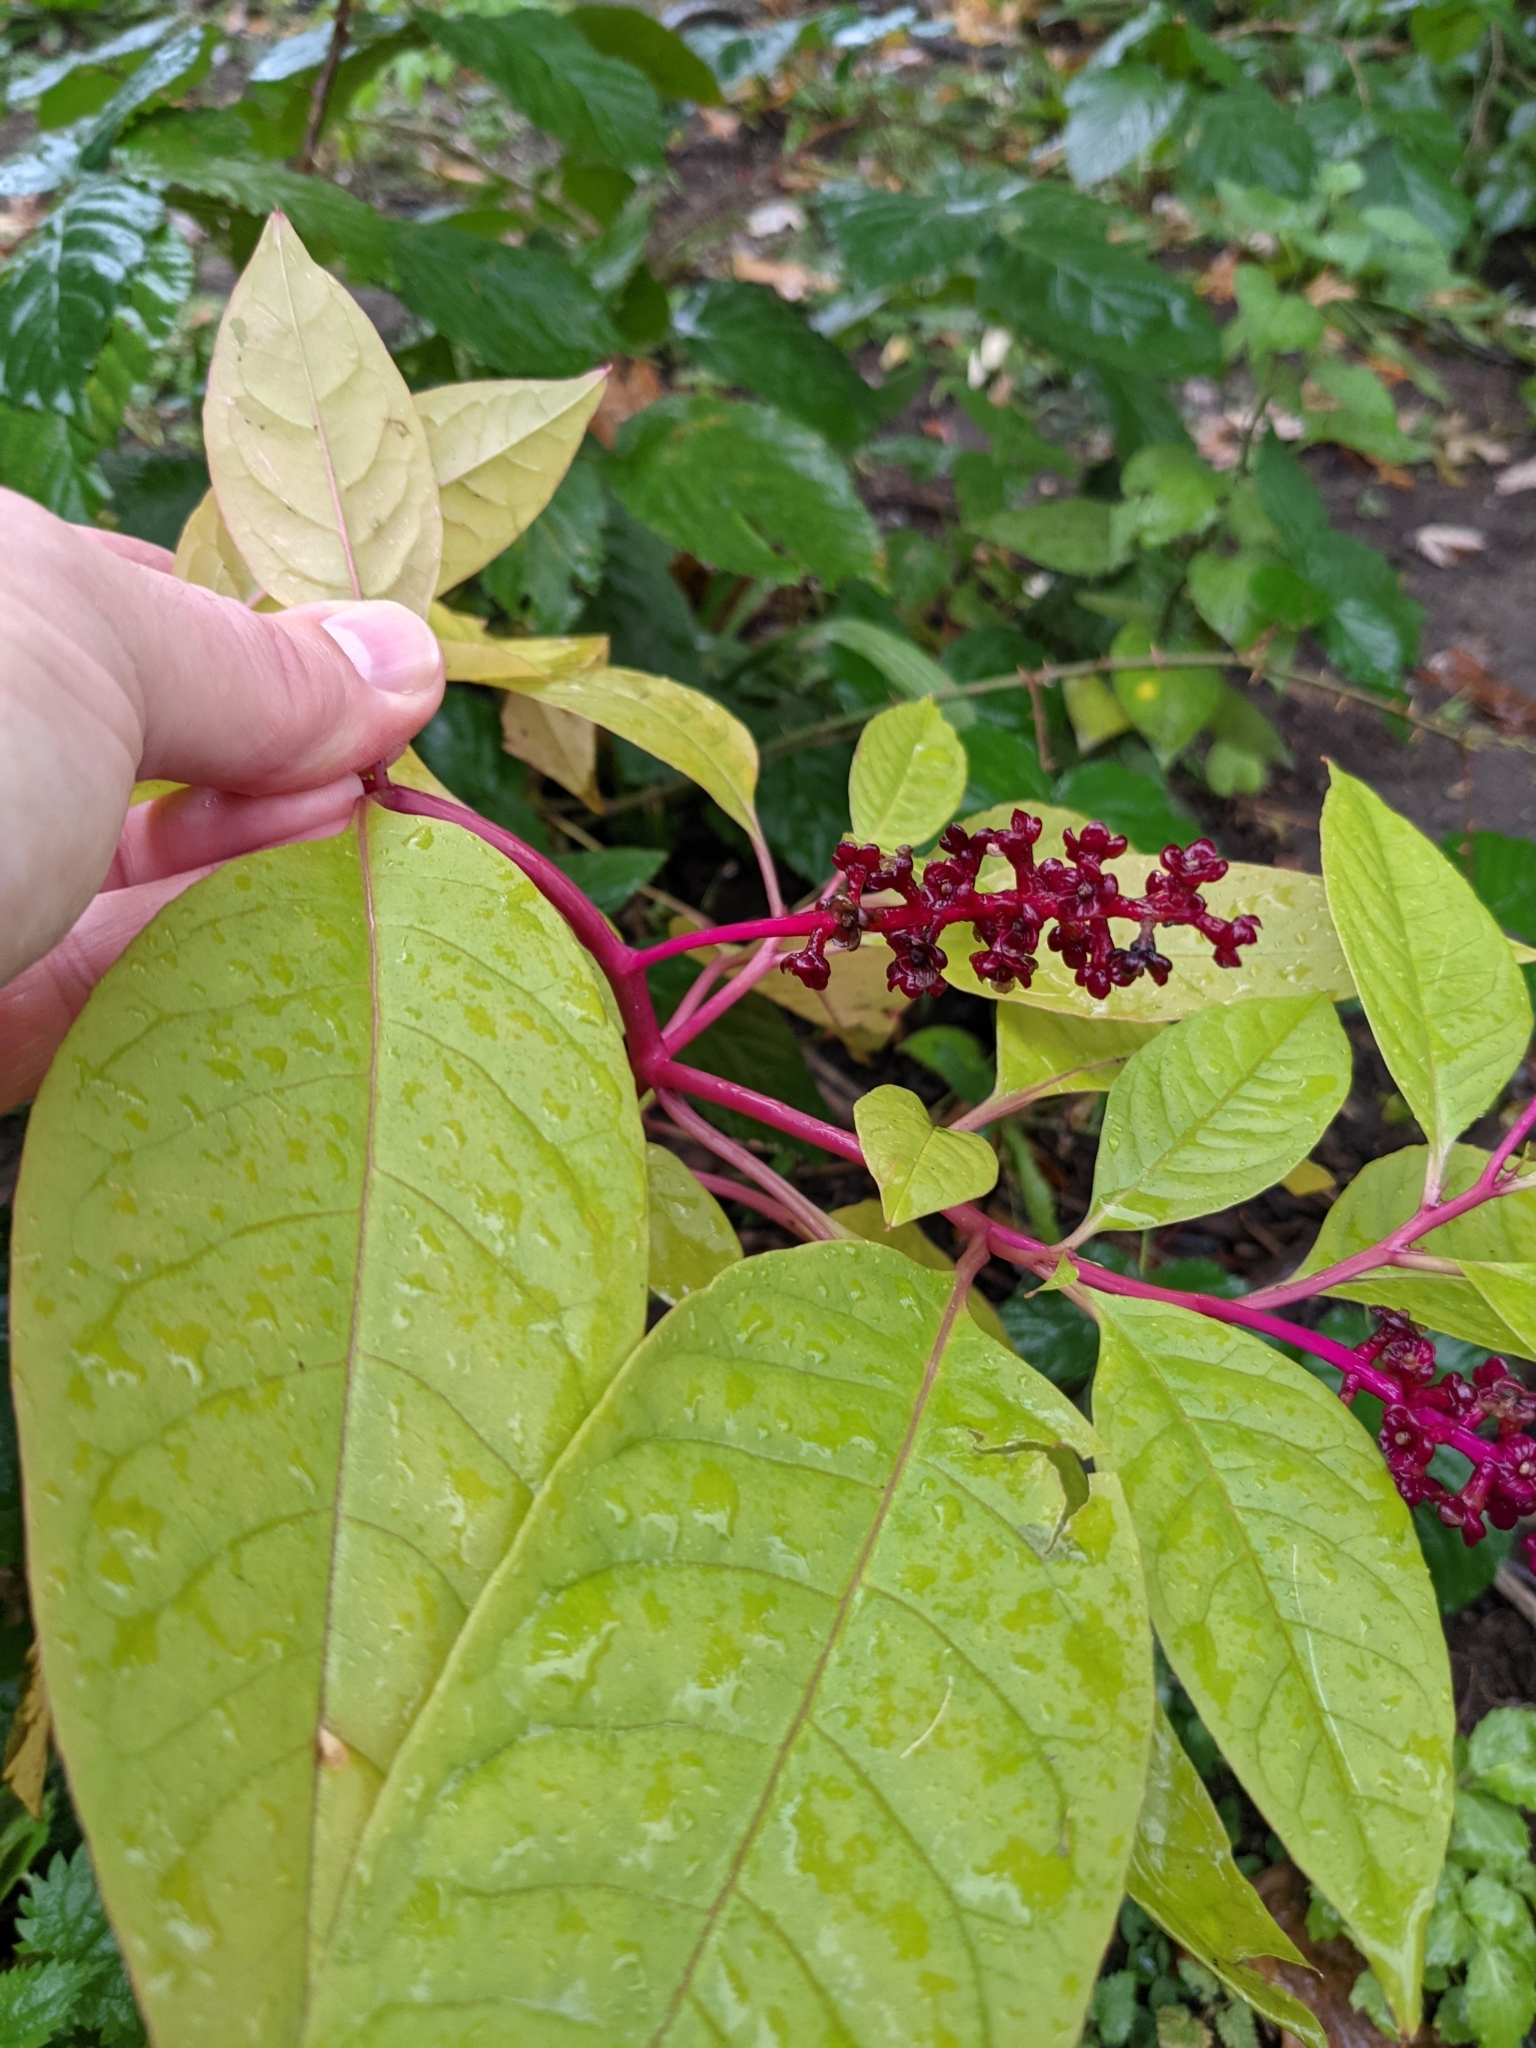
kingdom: Plantae
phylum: Tracheophyta
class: Magnoliopsida
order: Caryophyllales
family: Phytolaccaceae
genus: Phytolacca
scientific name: Phytolacca americana
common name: American pokeweed
